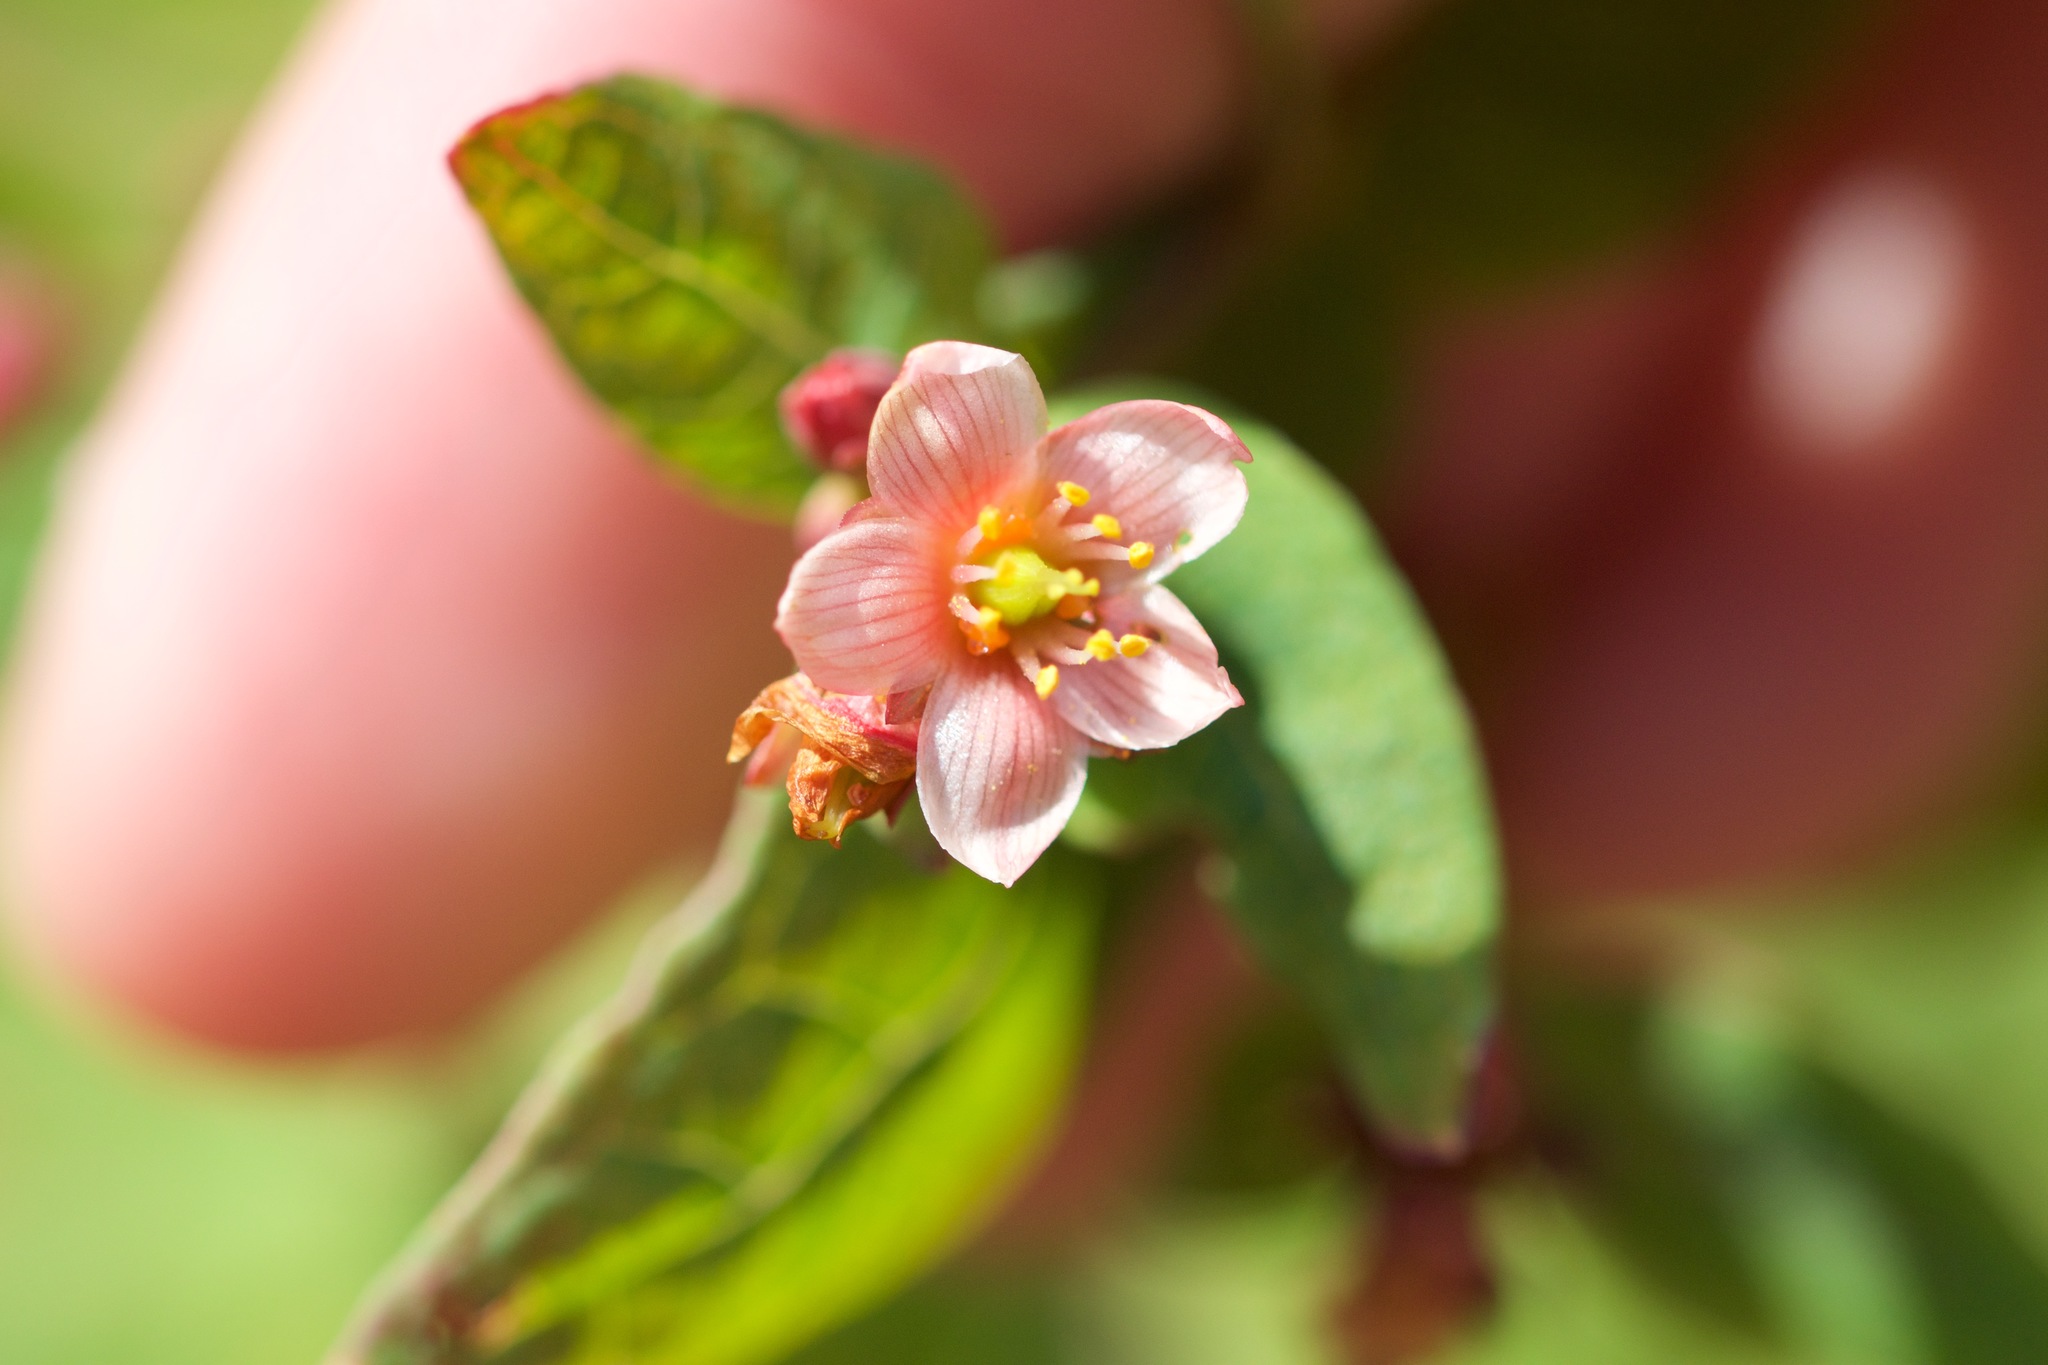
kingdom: Plantae
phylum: Tracheophyta
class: Magnoliopsida
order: Malpighiales
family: Hypericaceae
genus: Triadenum
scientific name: Triadenum fraseri
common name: Fraser's marsh st. johnswort
